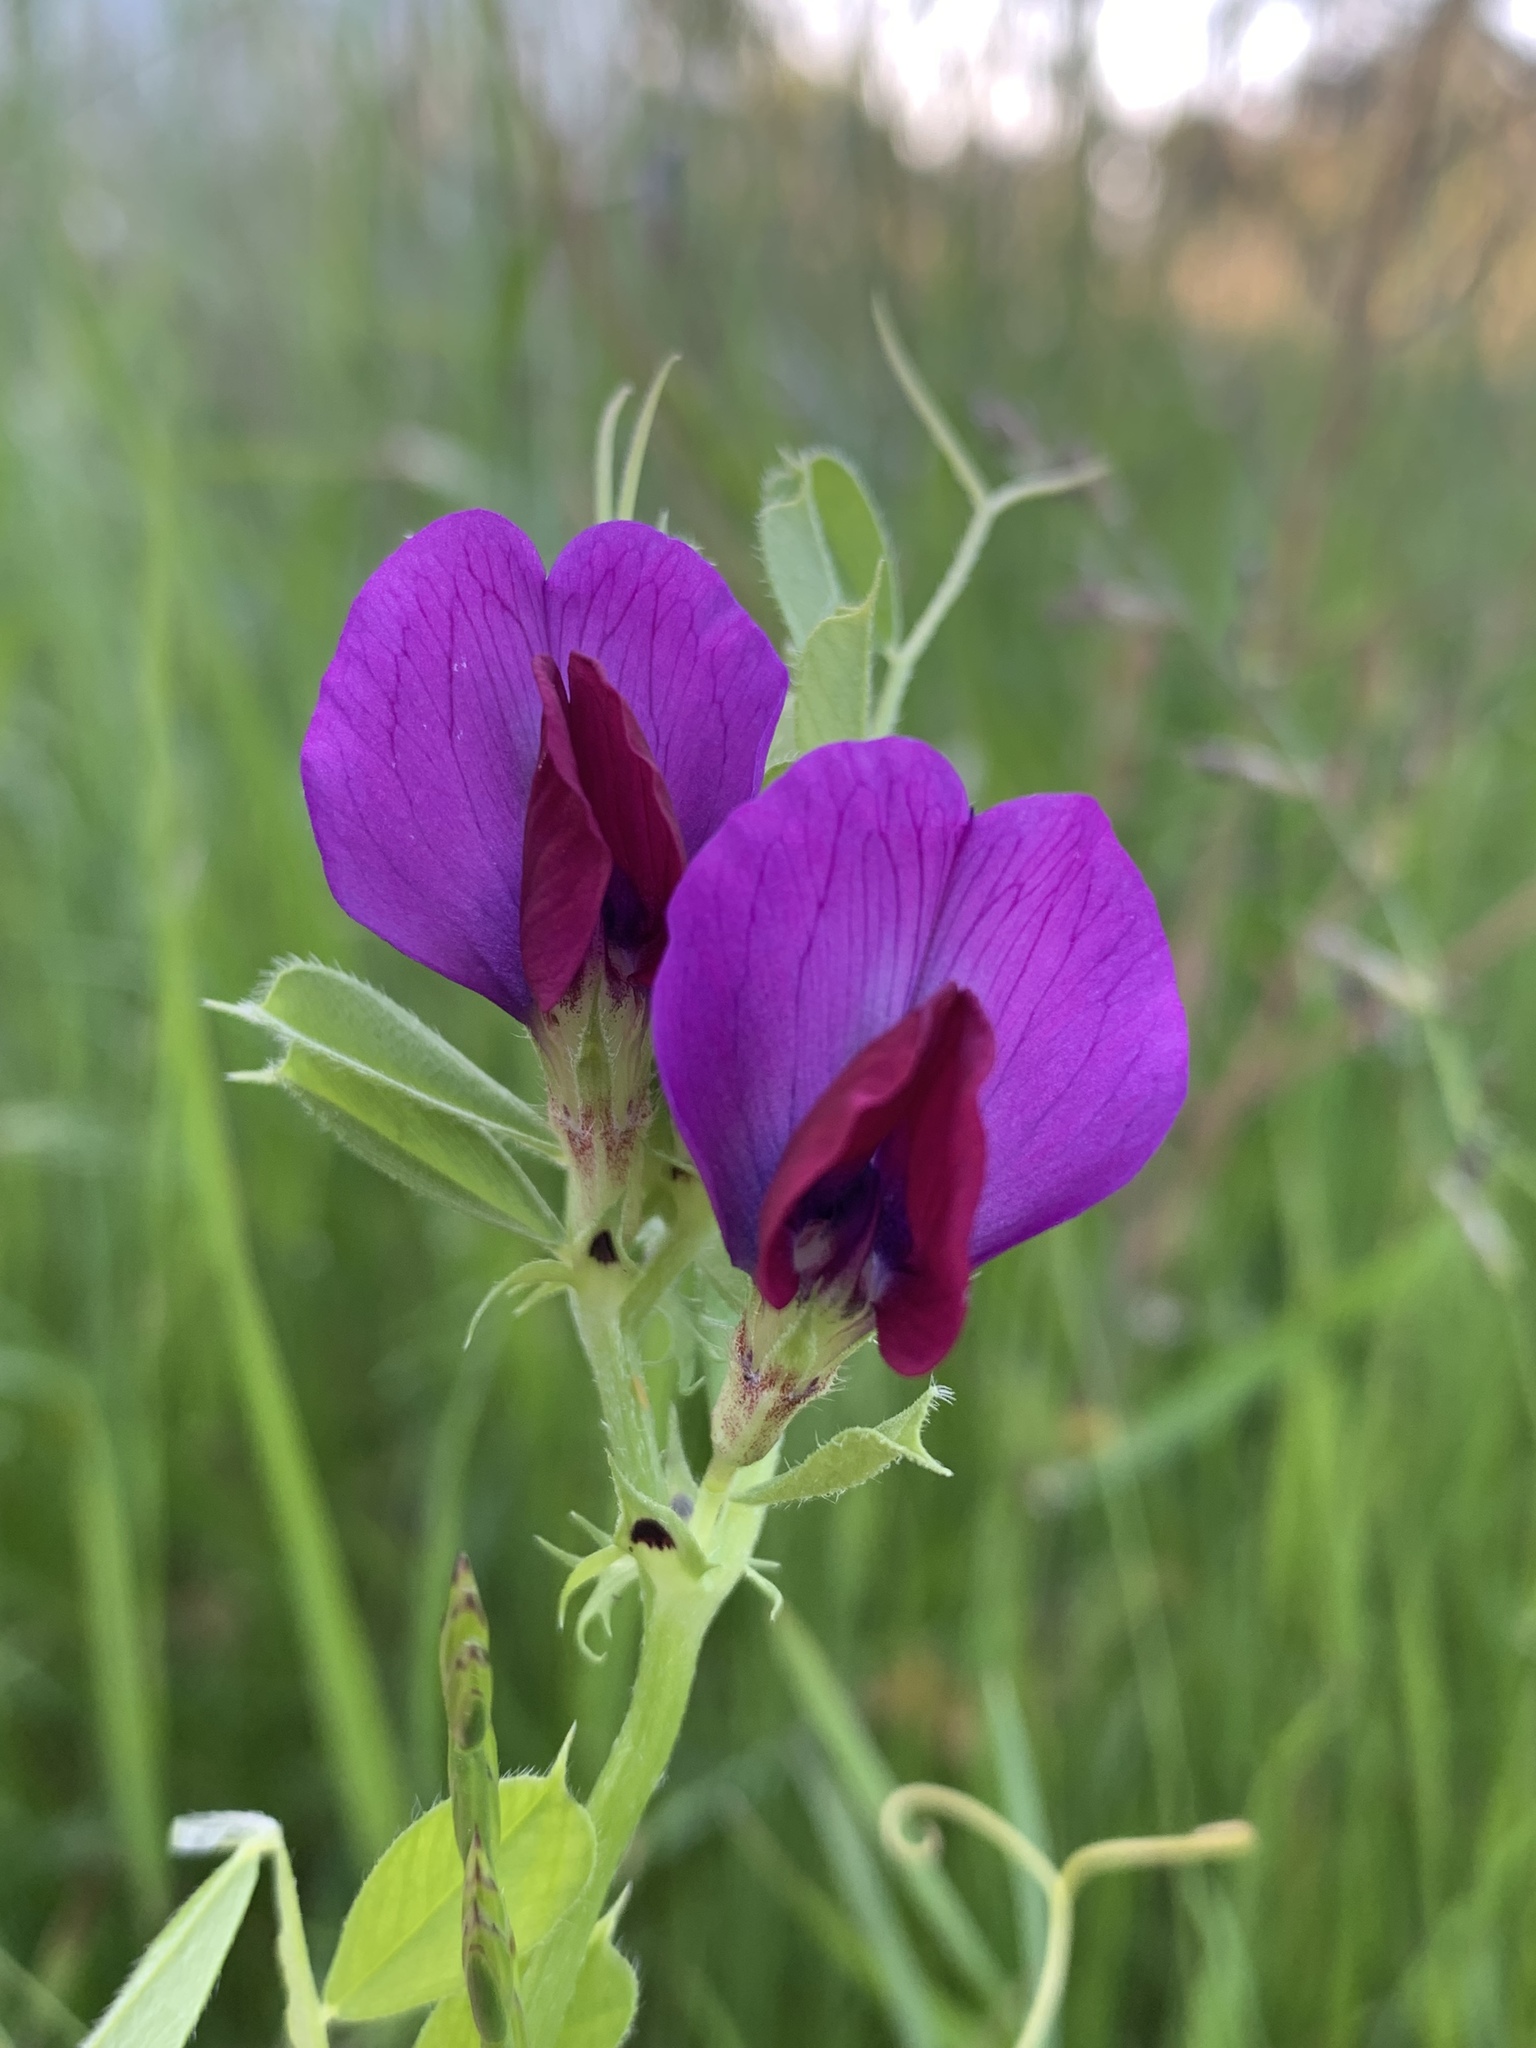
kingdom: Plantae
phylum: Tracheophyta
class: Magnoliopsida
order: Fabales
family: Fabaceae
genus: Vicia
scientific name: Vicia sativa
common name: Garden vetch
